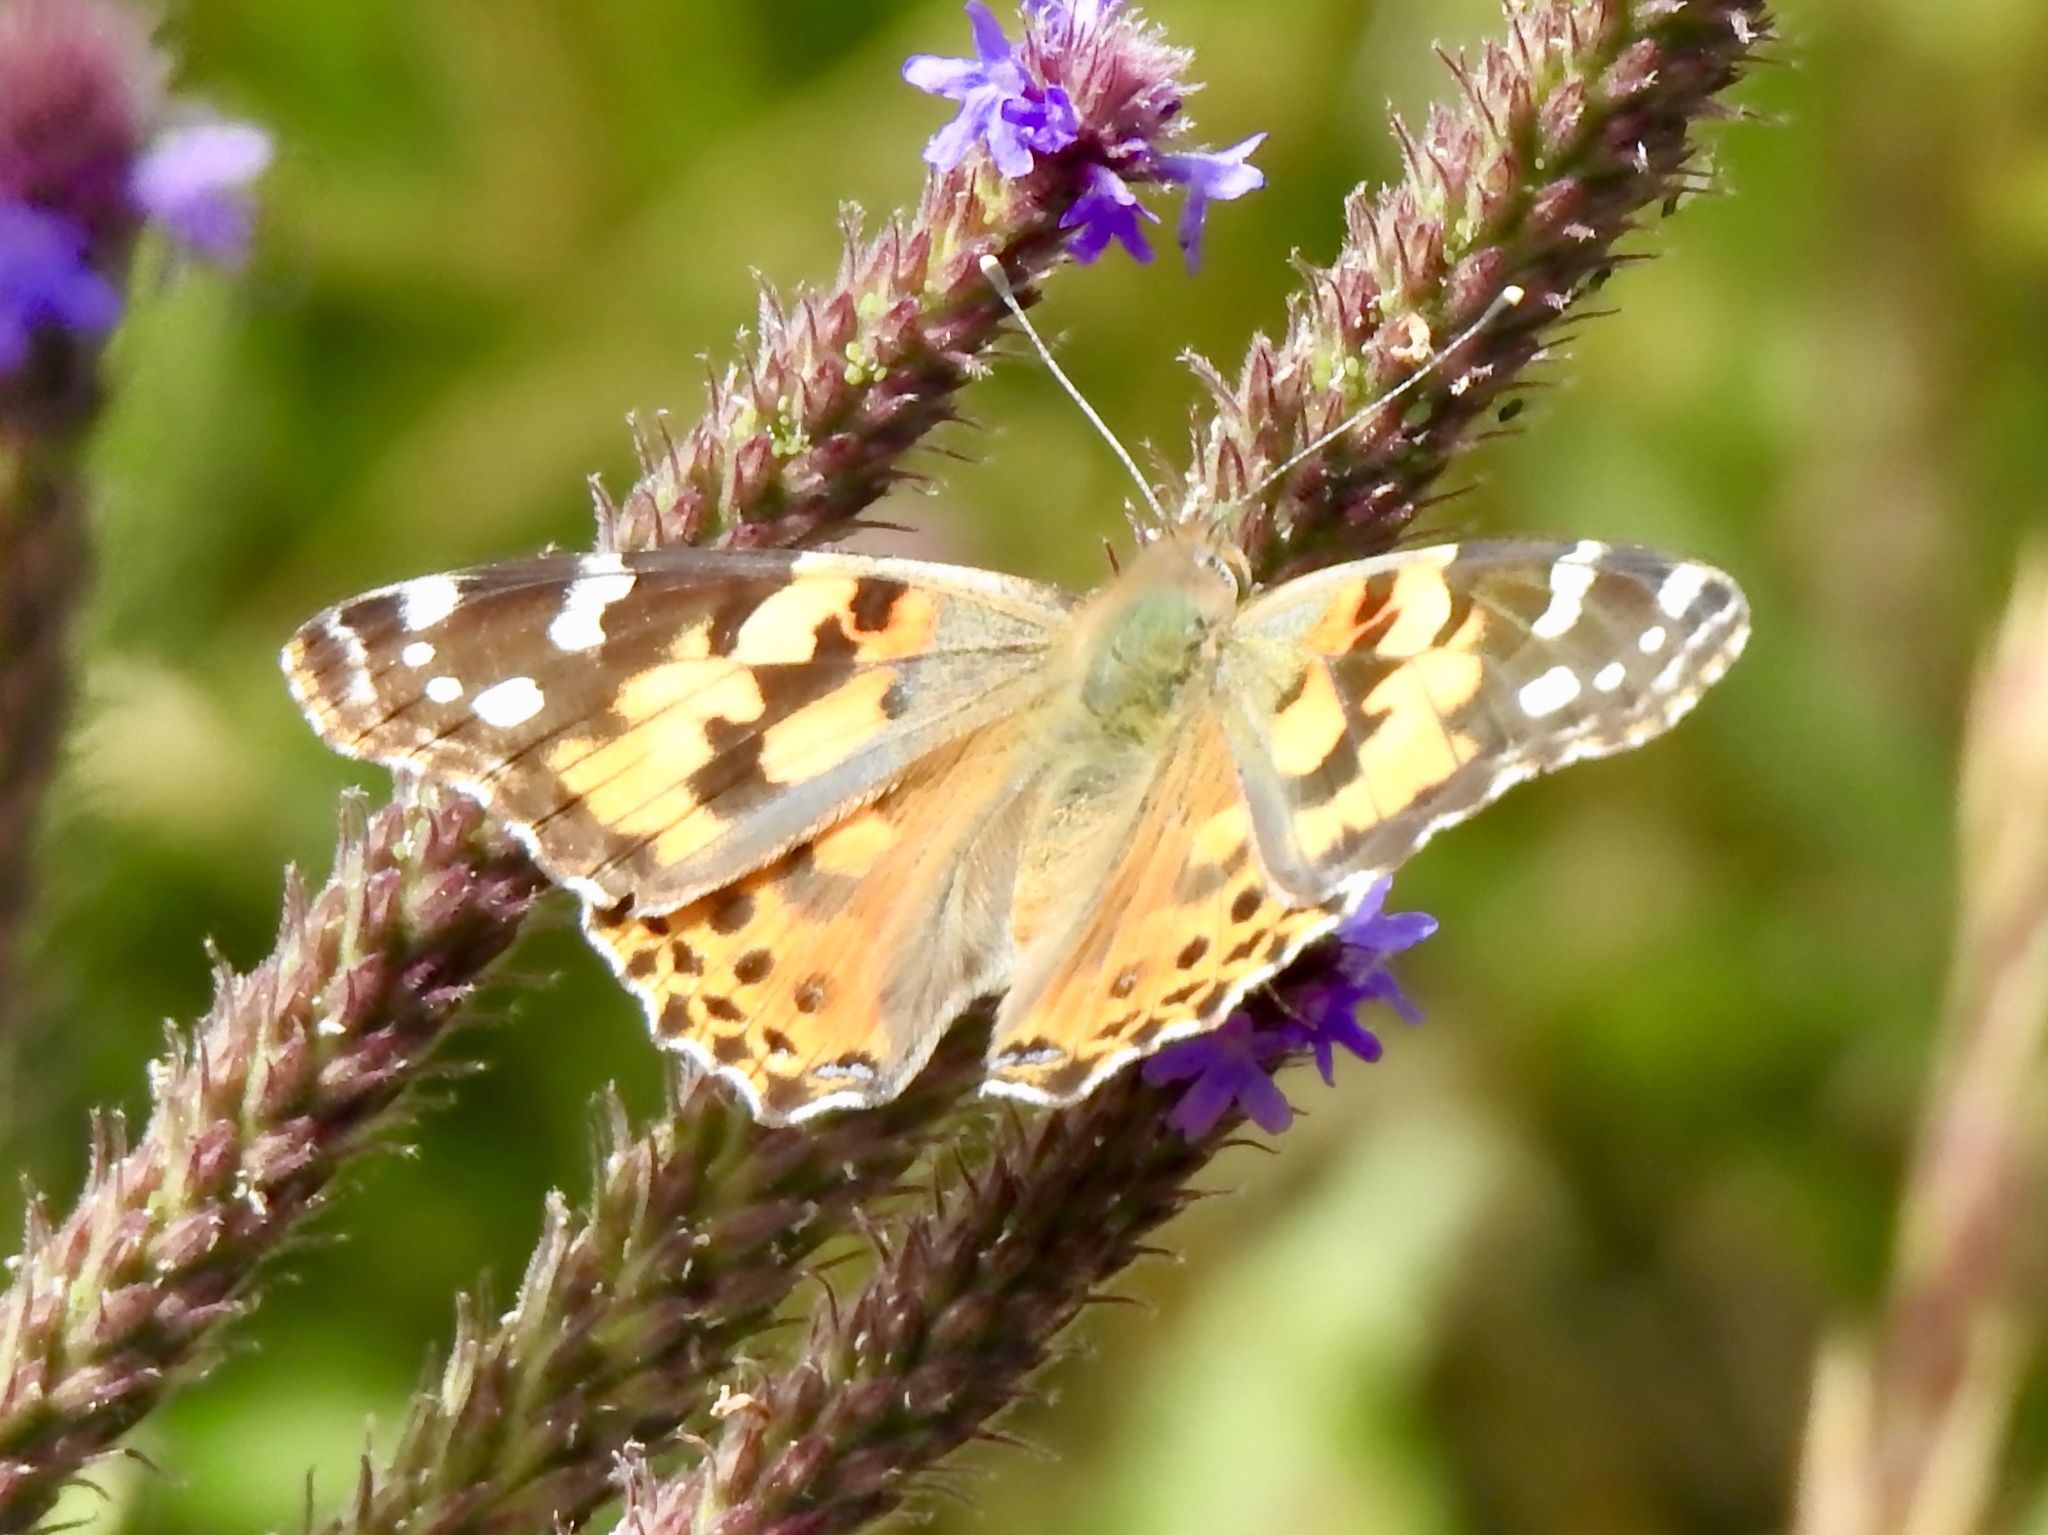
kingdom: Animalia
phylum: Arthropoda
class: Insecta
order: Lepidoptera
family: Nymphalidae
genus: Vanessa
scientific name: Vanessa cardui
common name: Painted lady
